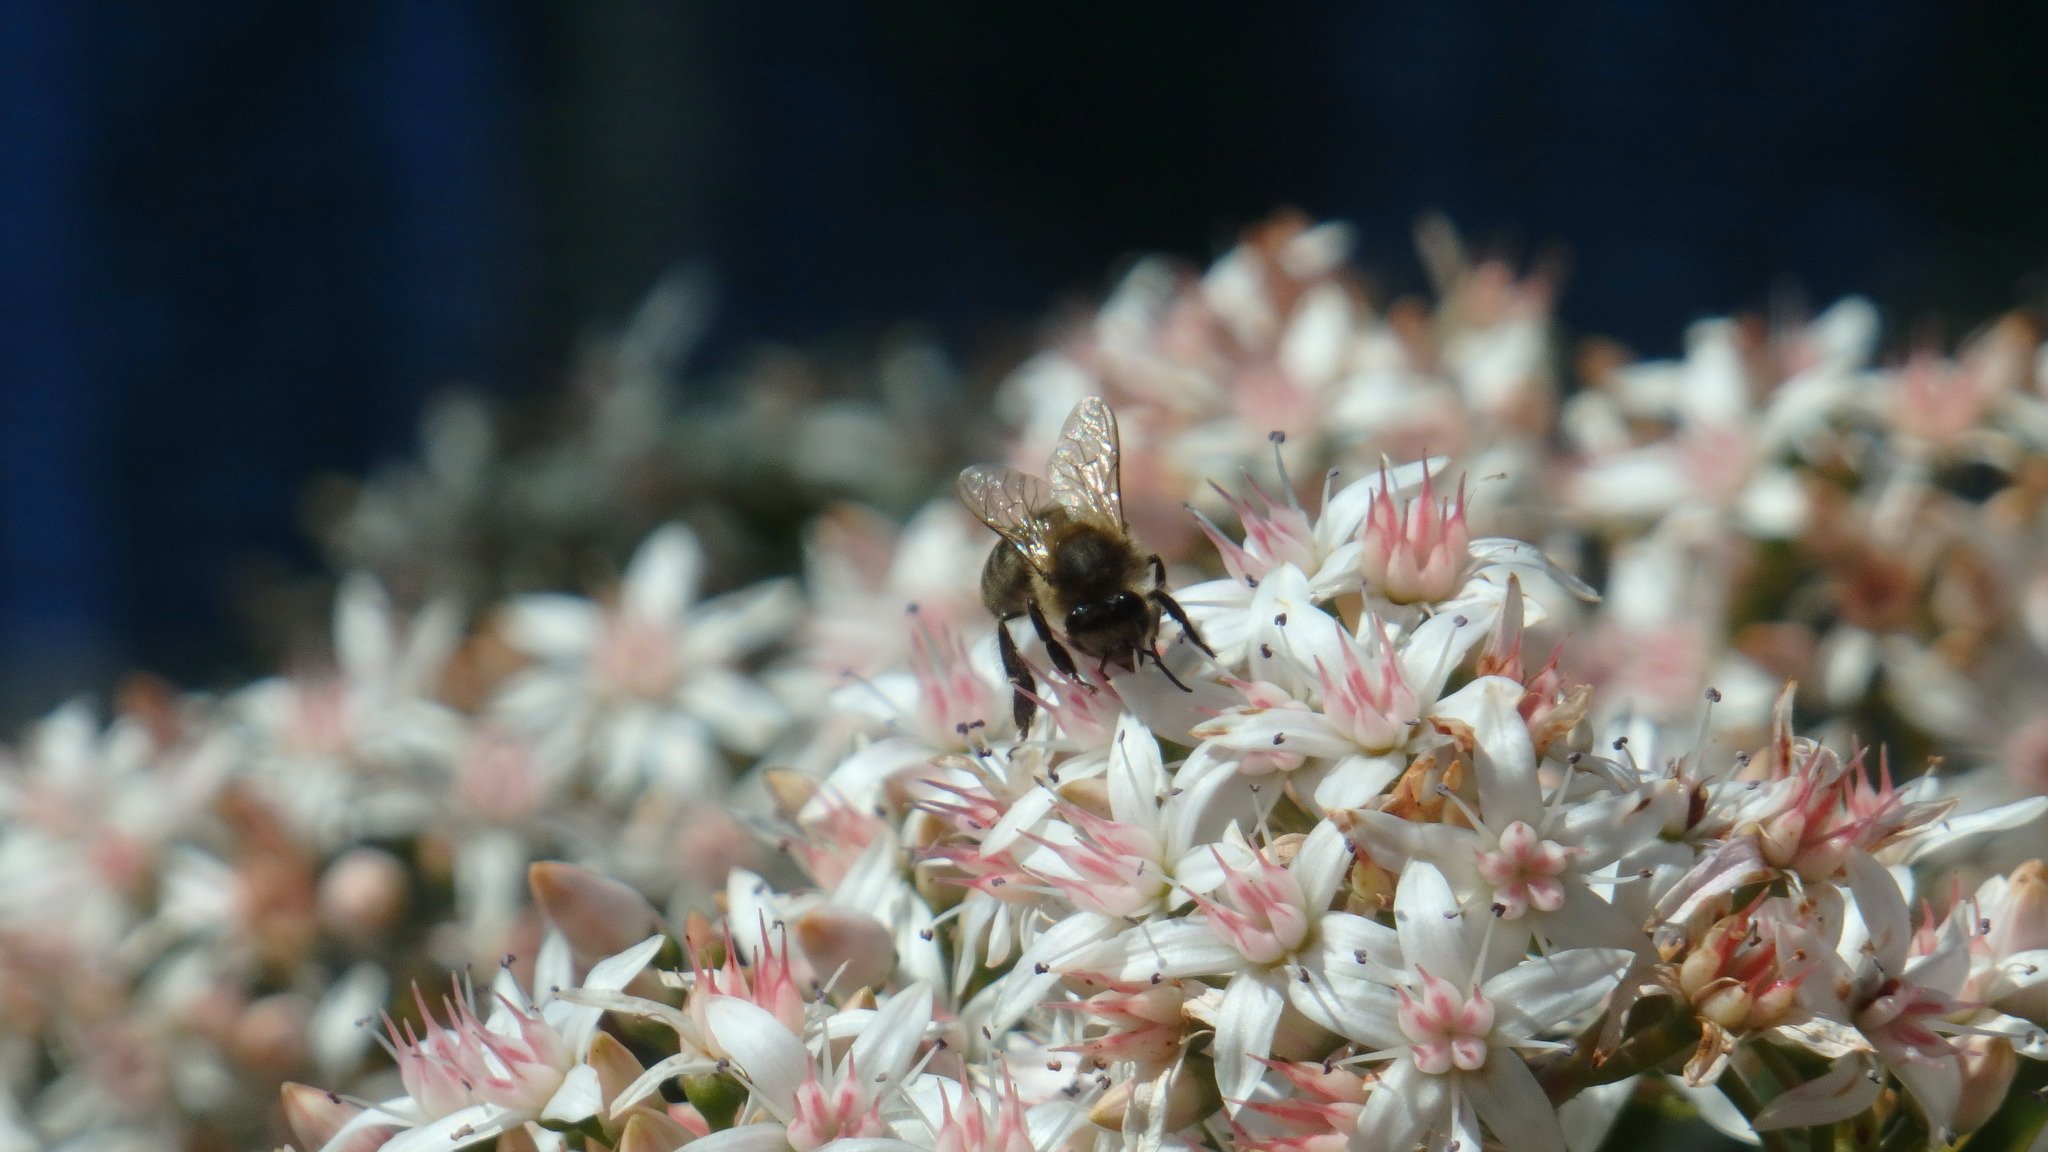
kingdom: Animalia
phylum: Arthropoda
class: Insecta
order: Hymenoptera
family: Apidae
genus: Apis
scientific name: Apis mellifera
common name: Honey bee
